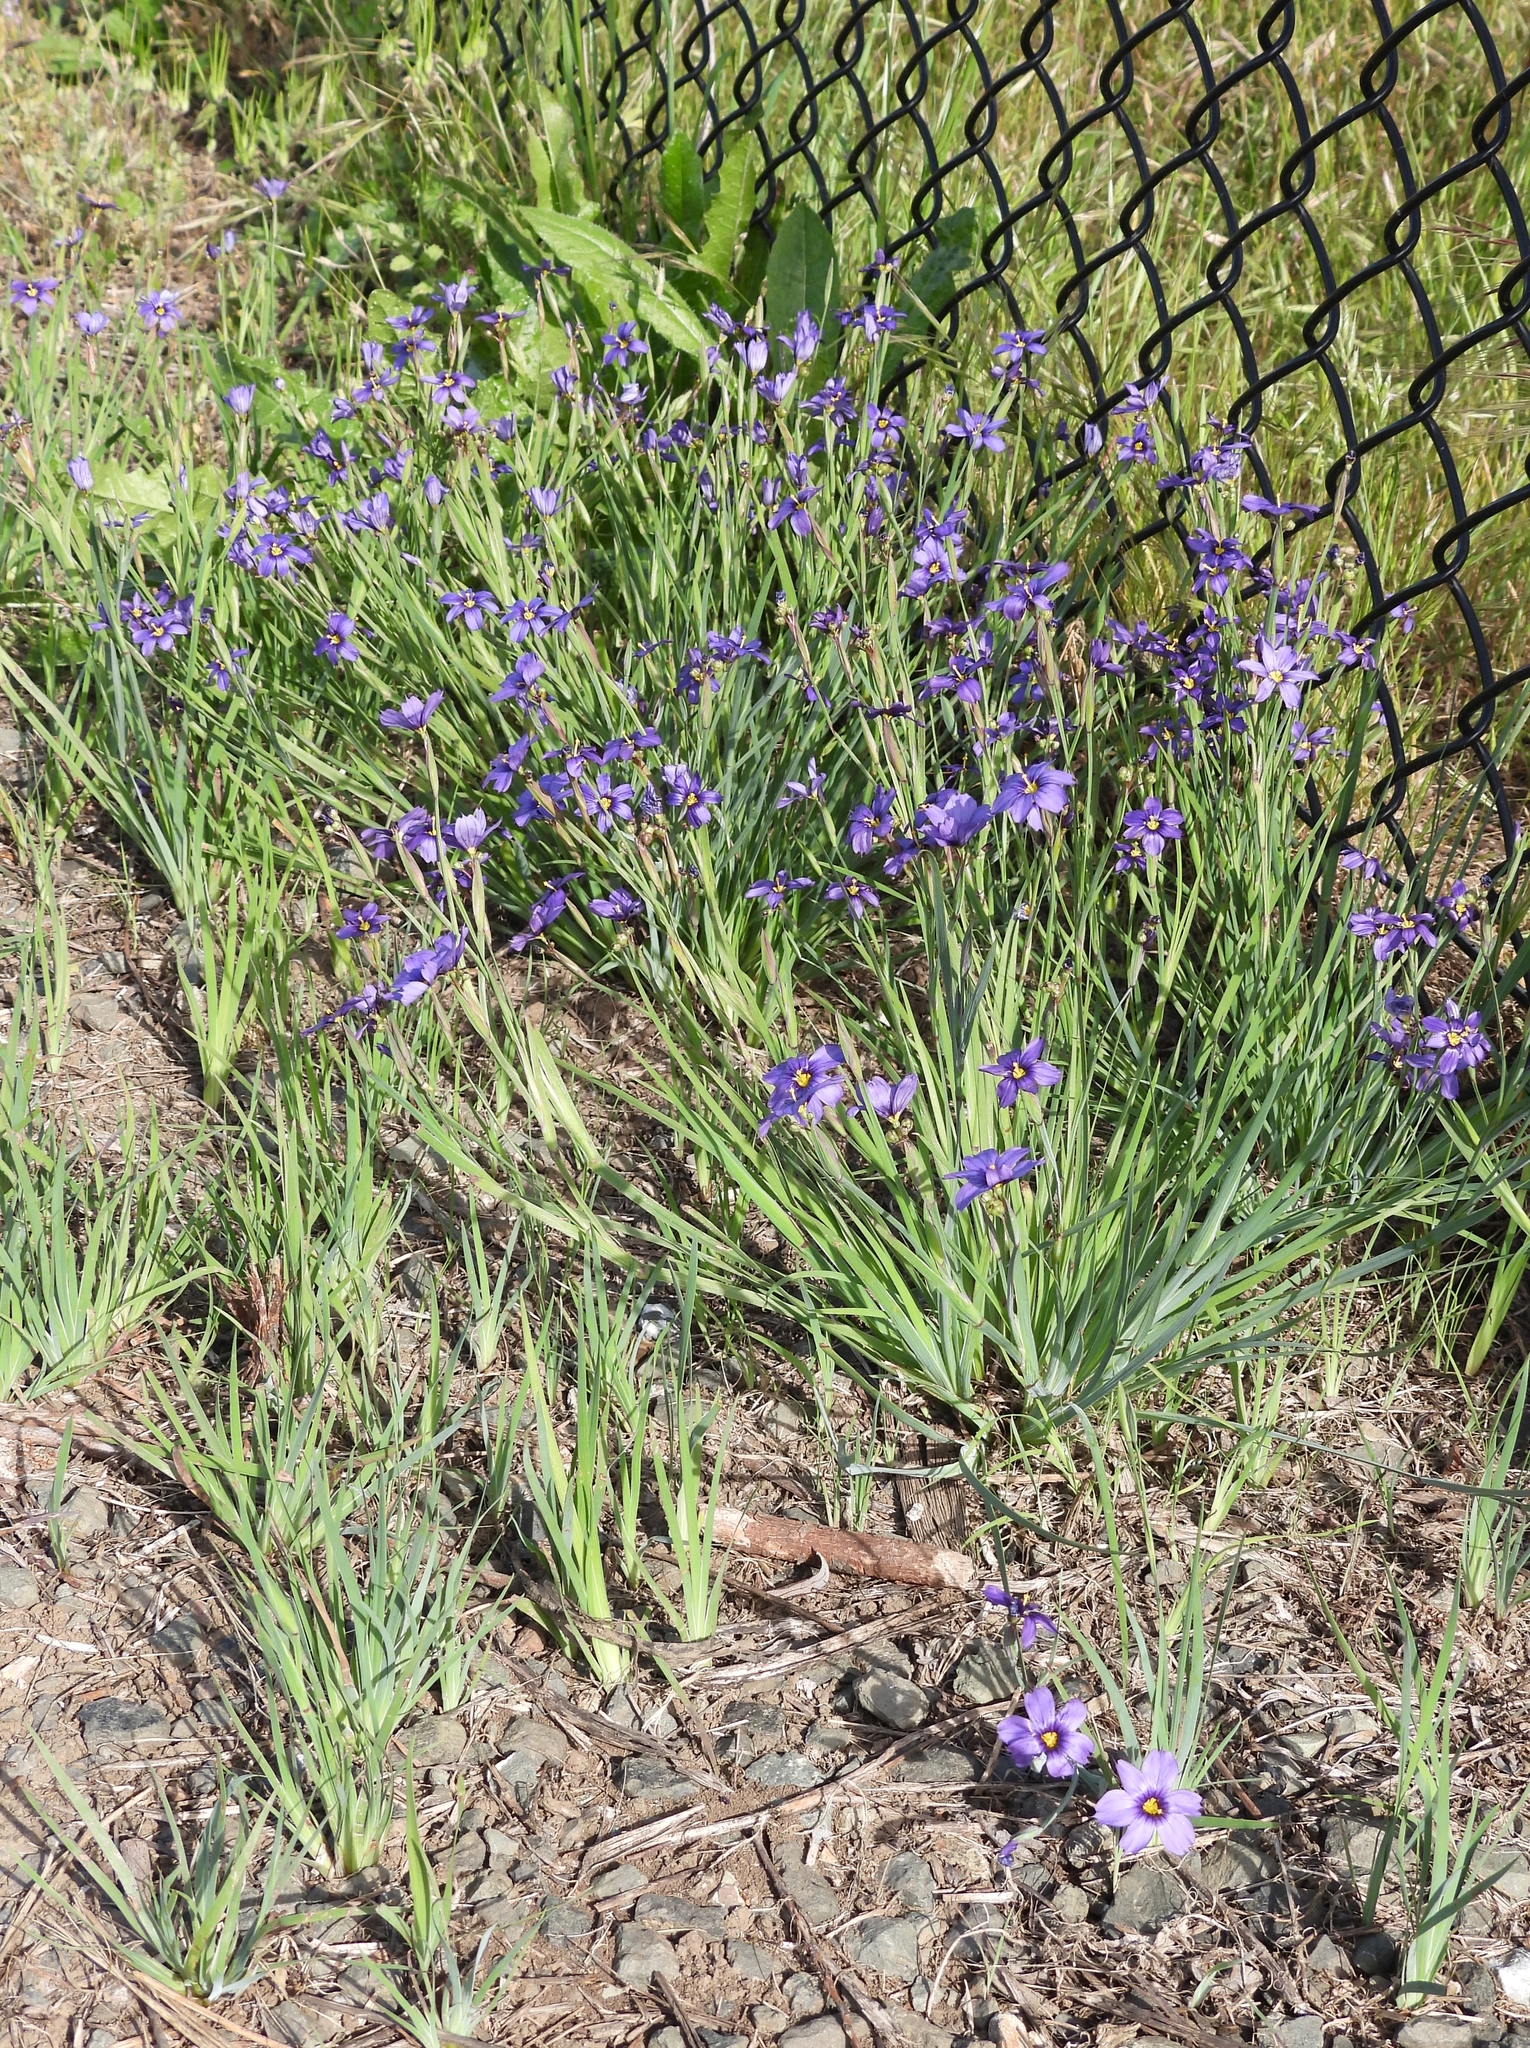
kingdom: Plantae
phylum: Tracheophyta
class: Liliopsida
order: Asparagales
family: Iridaceae
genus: Sisyrinchium
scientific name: Sisyrinchium bellum
